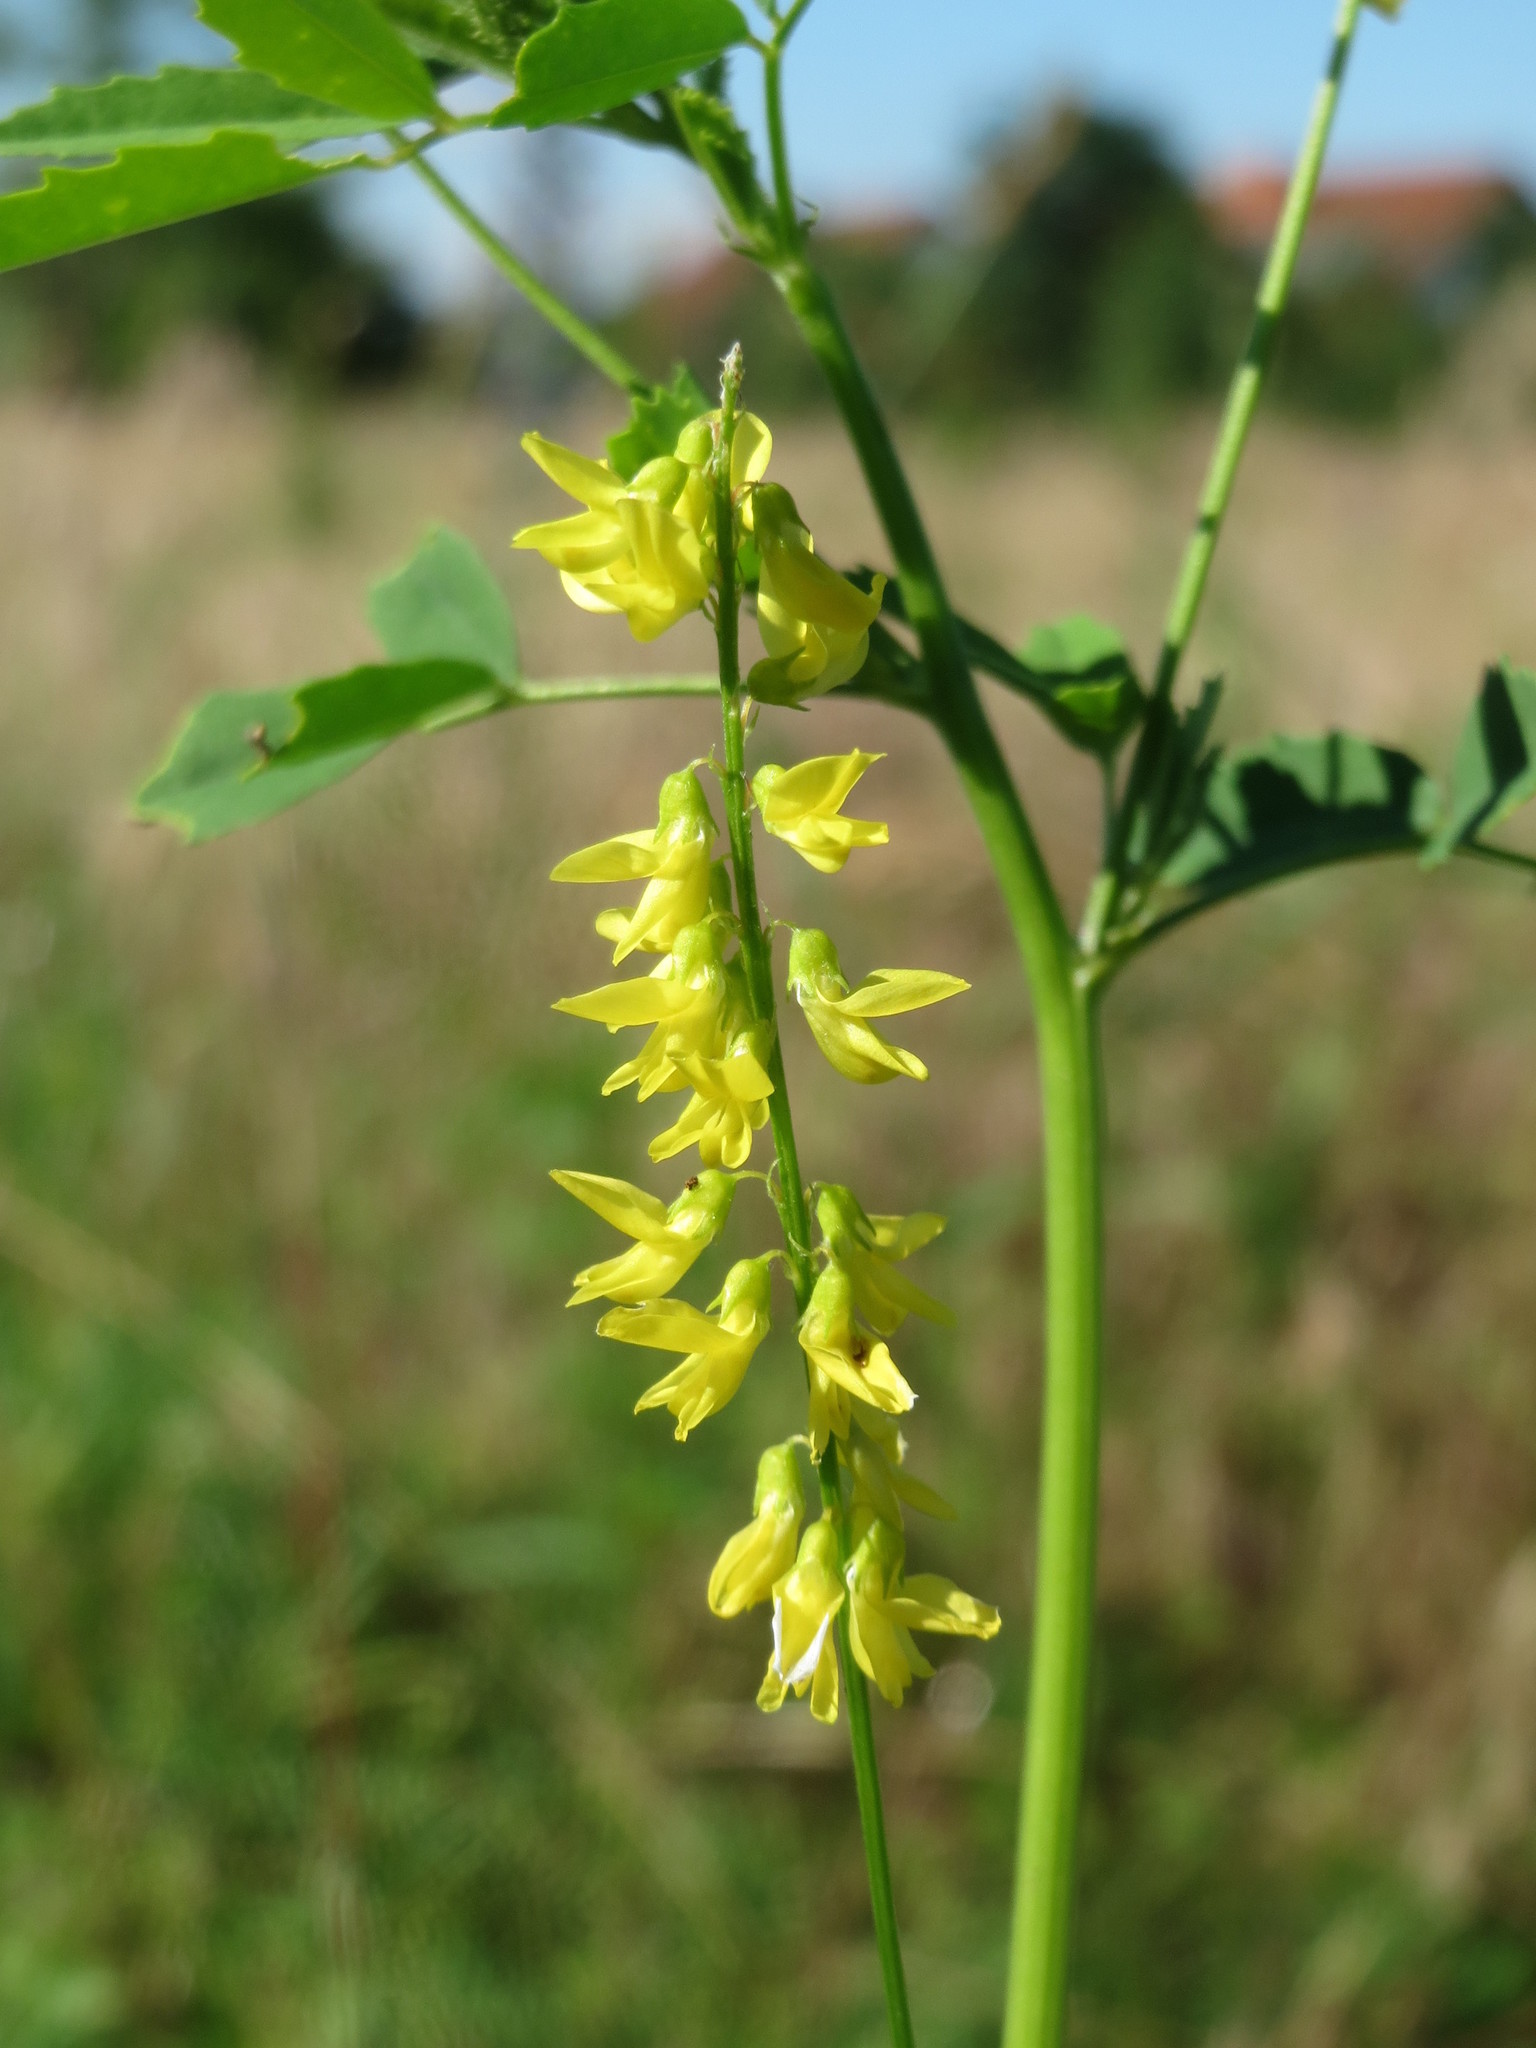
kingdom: Plantae
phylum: Tracheophyta
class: Magnoliopsida
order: Fabales
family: Fabaceae
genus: Melilotus
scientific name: Melilotus officinalis
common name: Sweetclover
